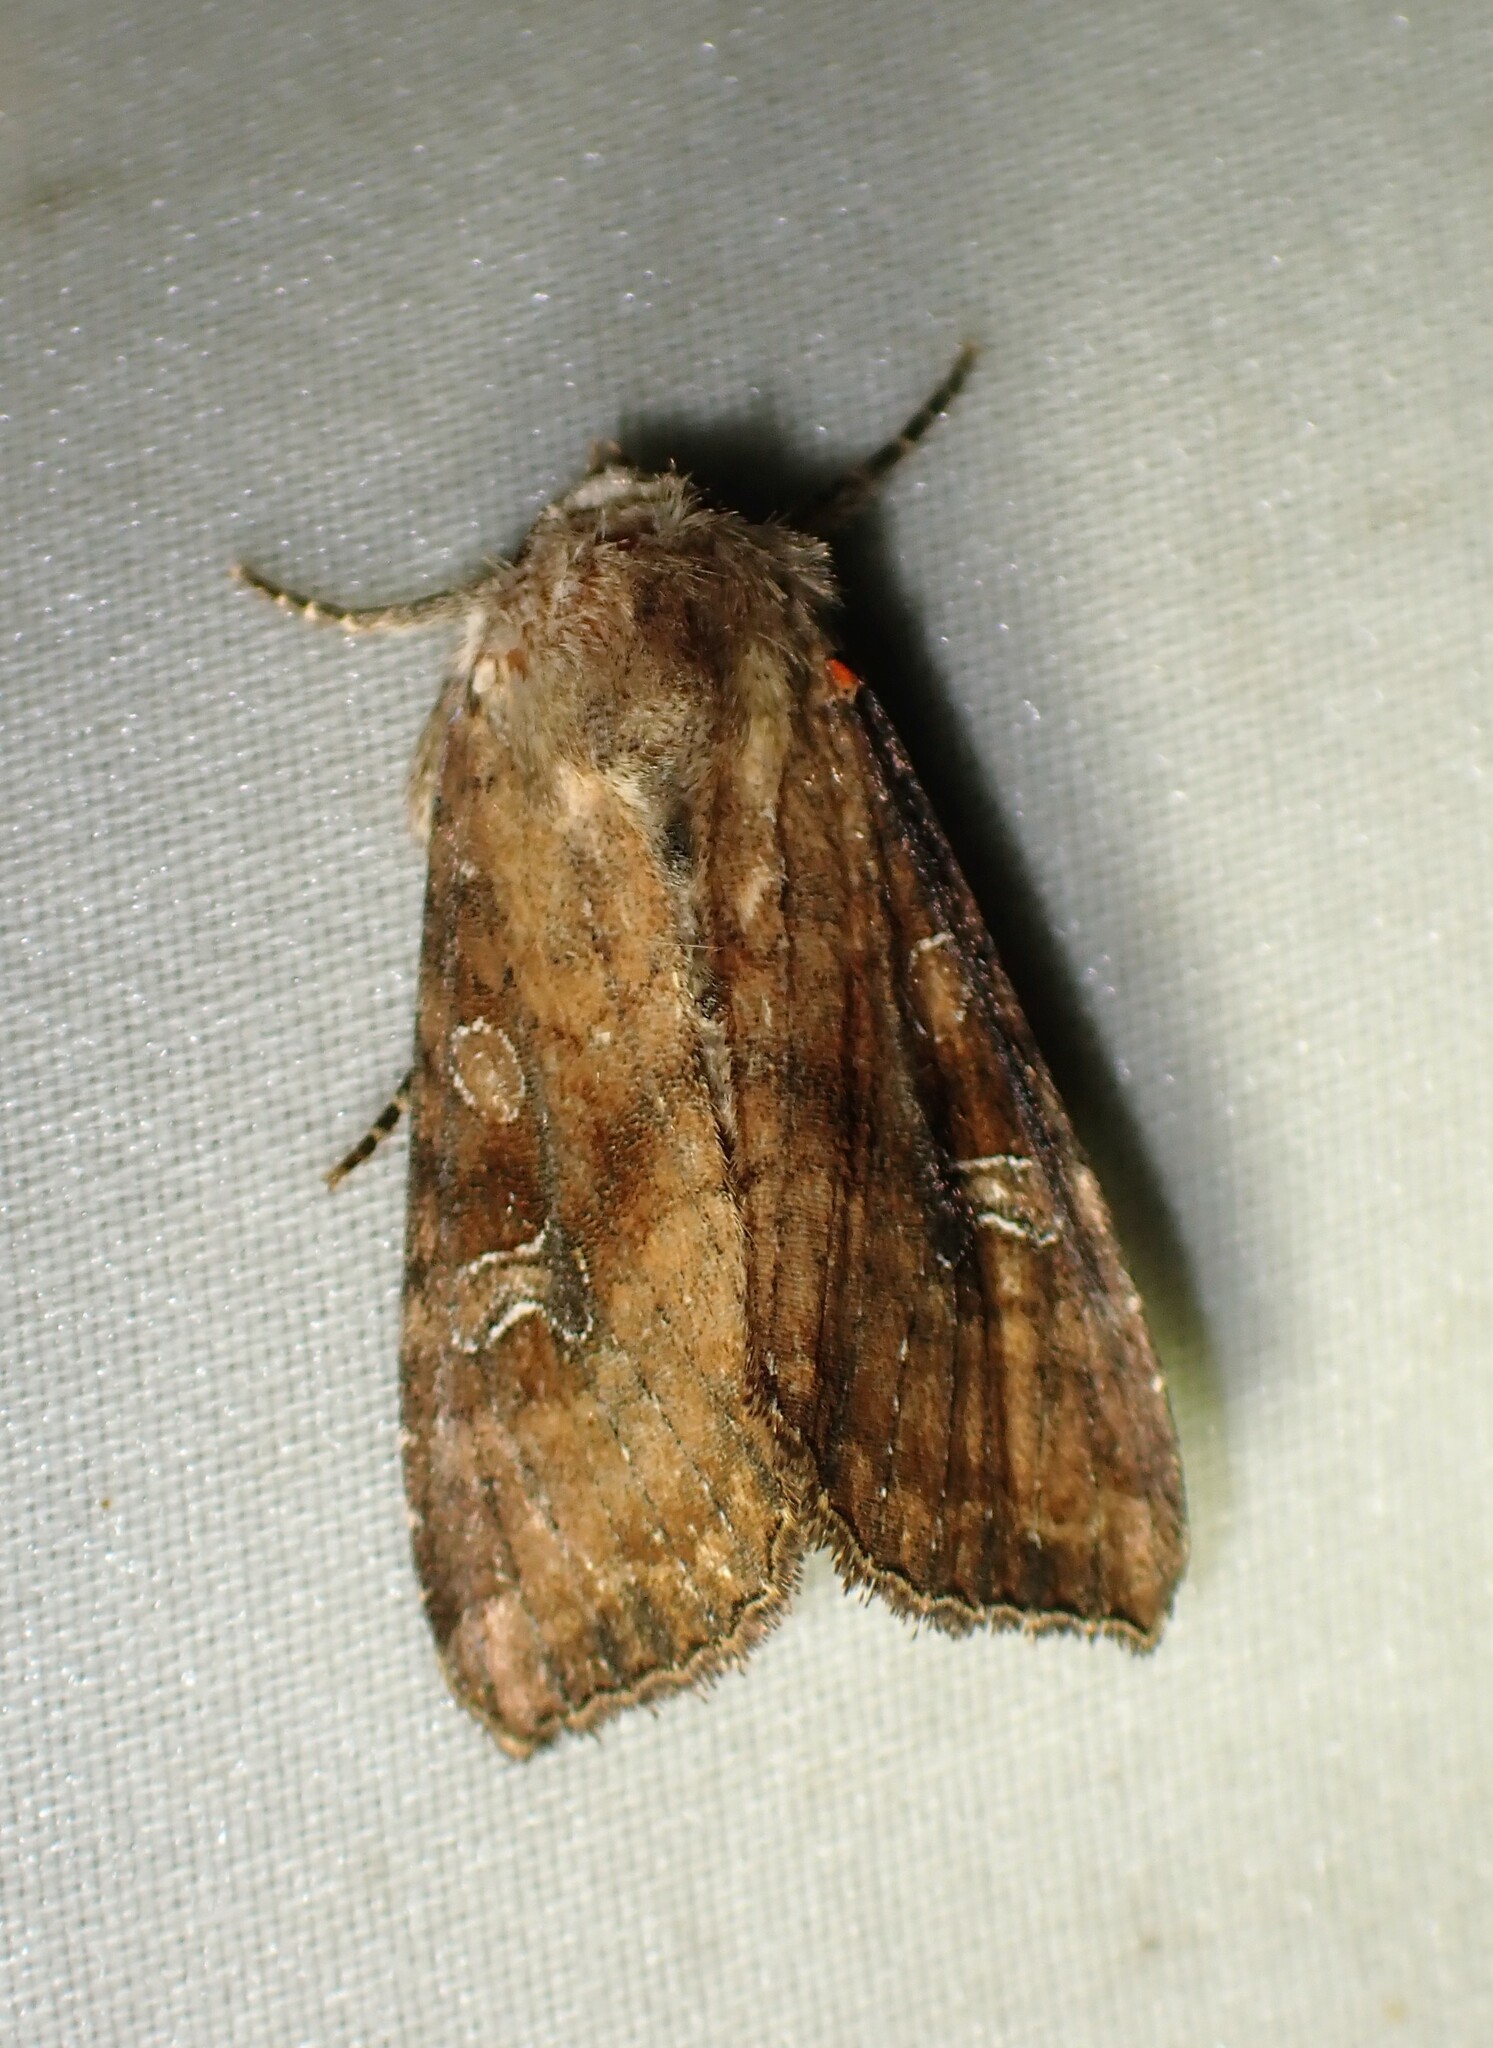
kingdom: Animalia
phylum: Arthropoda
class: Insecta
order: Lepidoptera
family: Noctuidae
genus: Loscopia
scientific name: Loscopia velata
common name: Veiled ear moth
